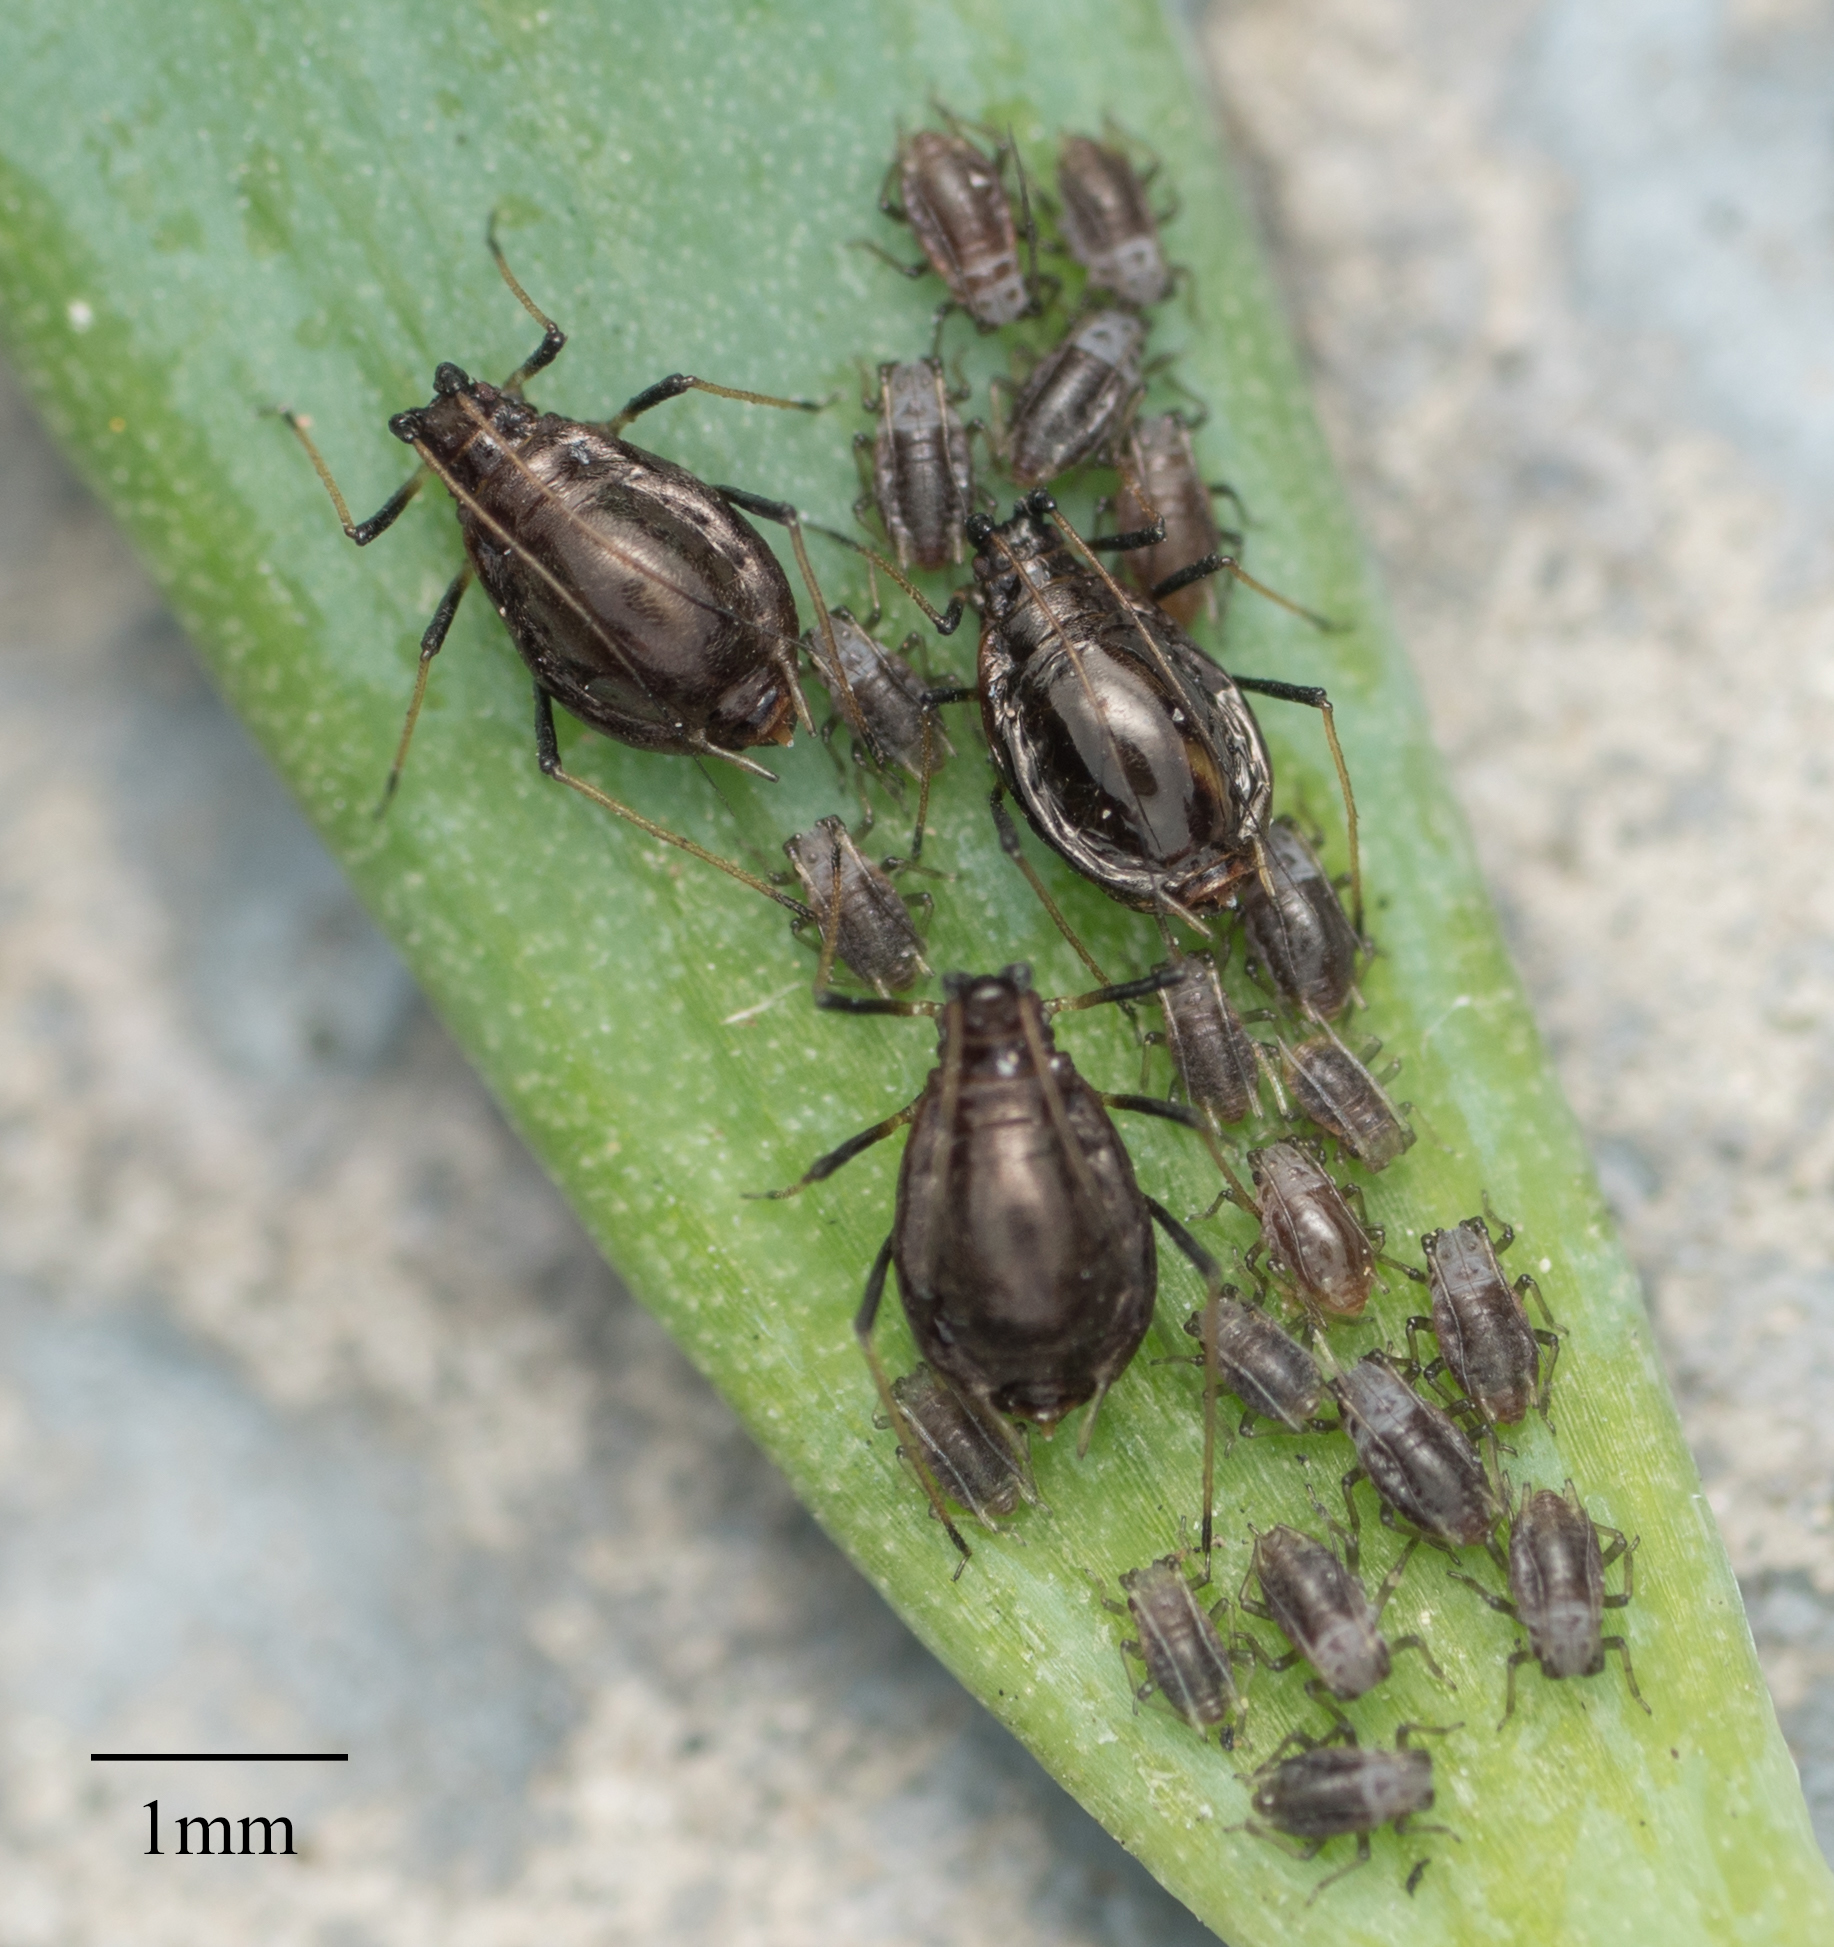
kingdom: Animalia
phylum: Arthropoda
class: Insecta
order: Hemiptera
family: Aphididae
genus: Neotoxoptera
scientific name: Neotoxoptera formosana
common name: Onion aphid
